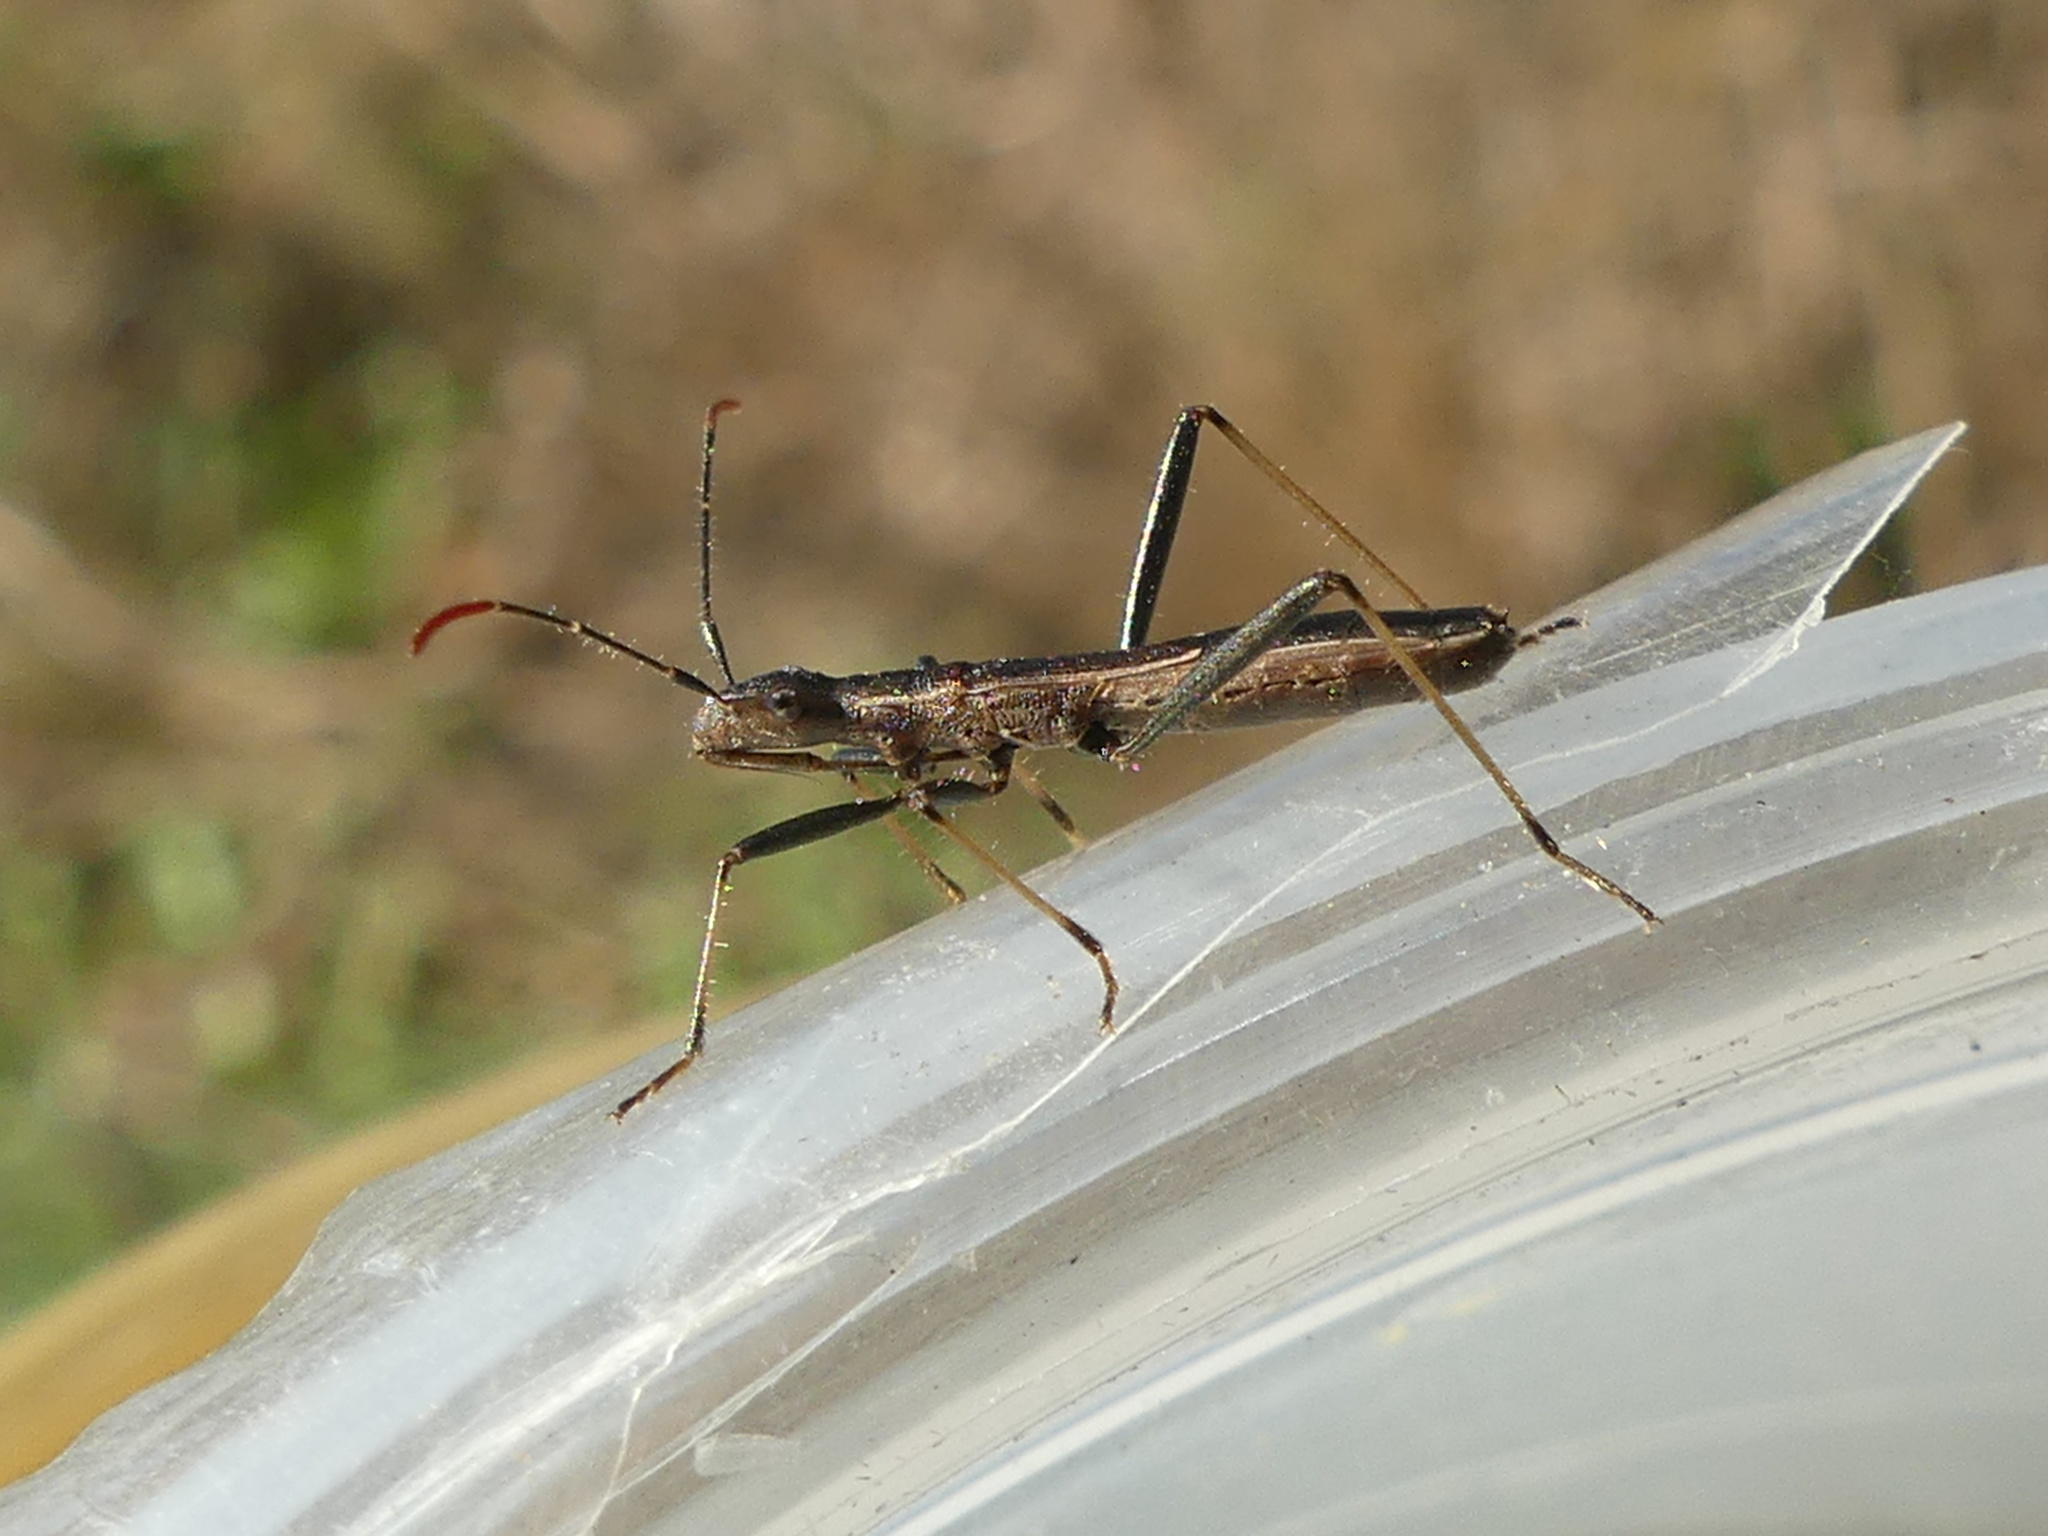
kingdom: Animalia
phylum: Arthropoda
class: Insecta
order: Hemiptera
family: Alydidae
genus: Micrelytra
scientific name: Micrelytra fossularum
